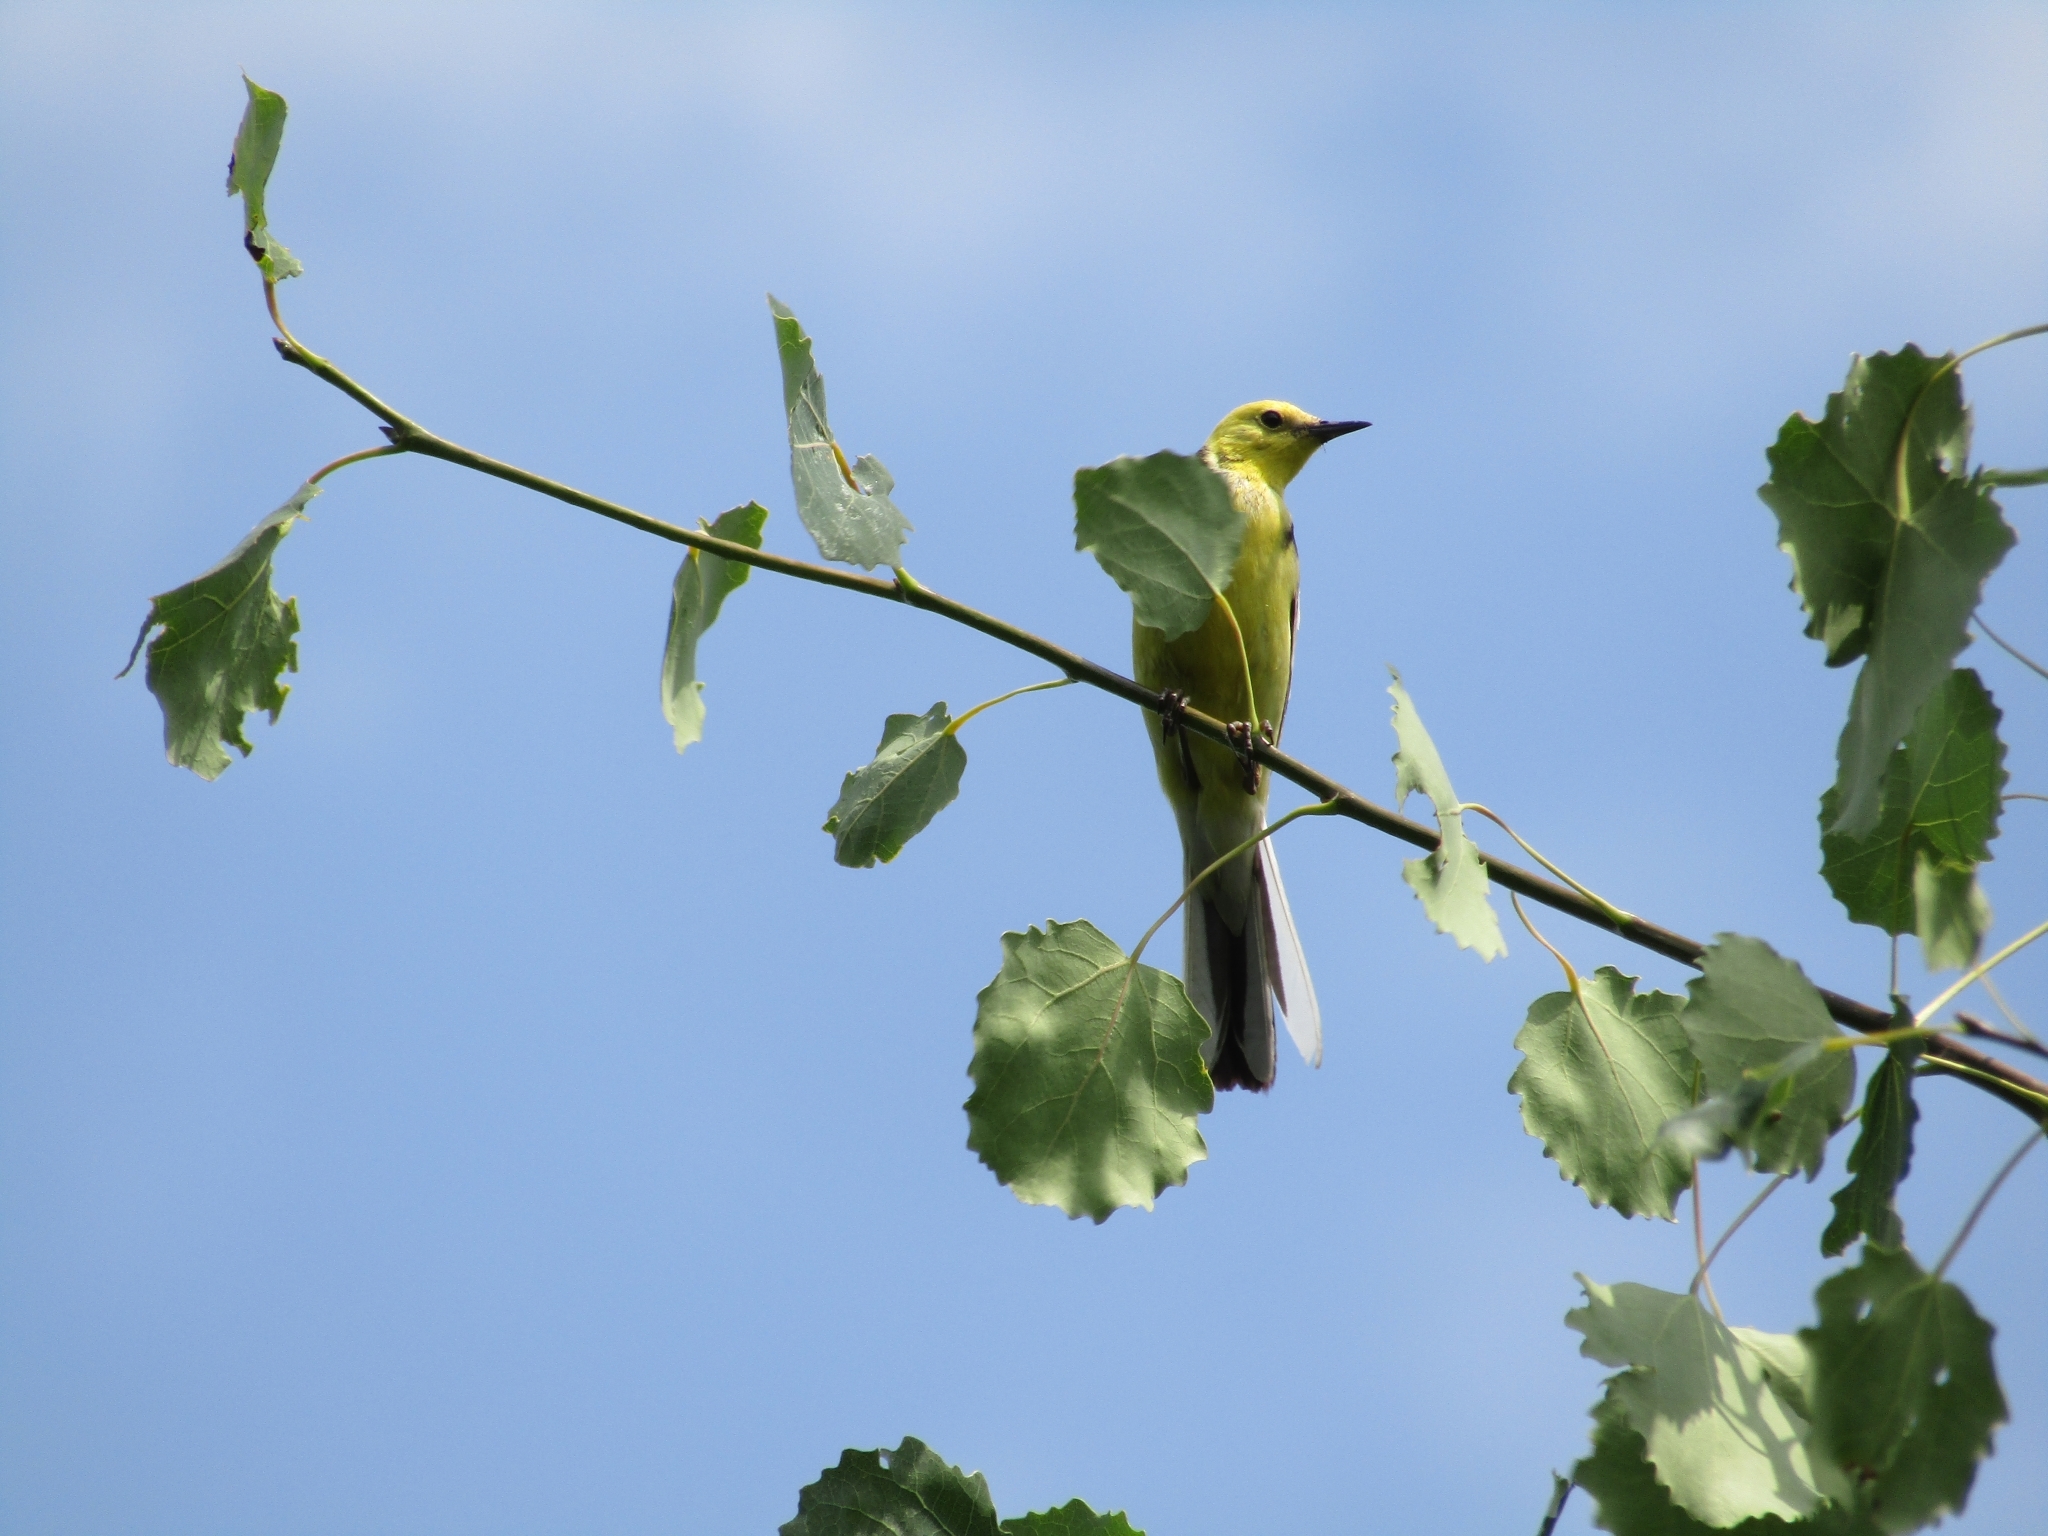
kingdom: Animalia
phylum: Chordata
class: Aves
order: Passeriformes
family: Motacillidae
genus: Motacilla
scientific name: Motacilla citreola
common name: Citrine wagtail
